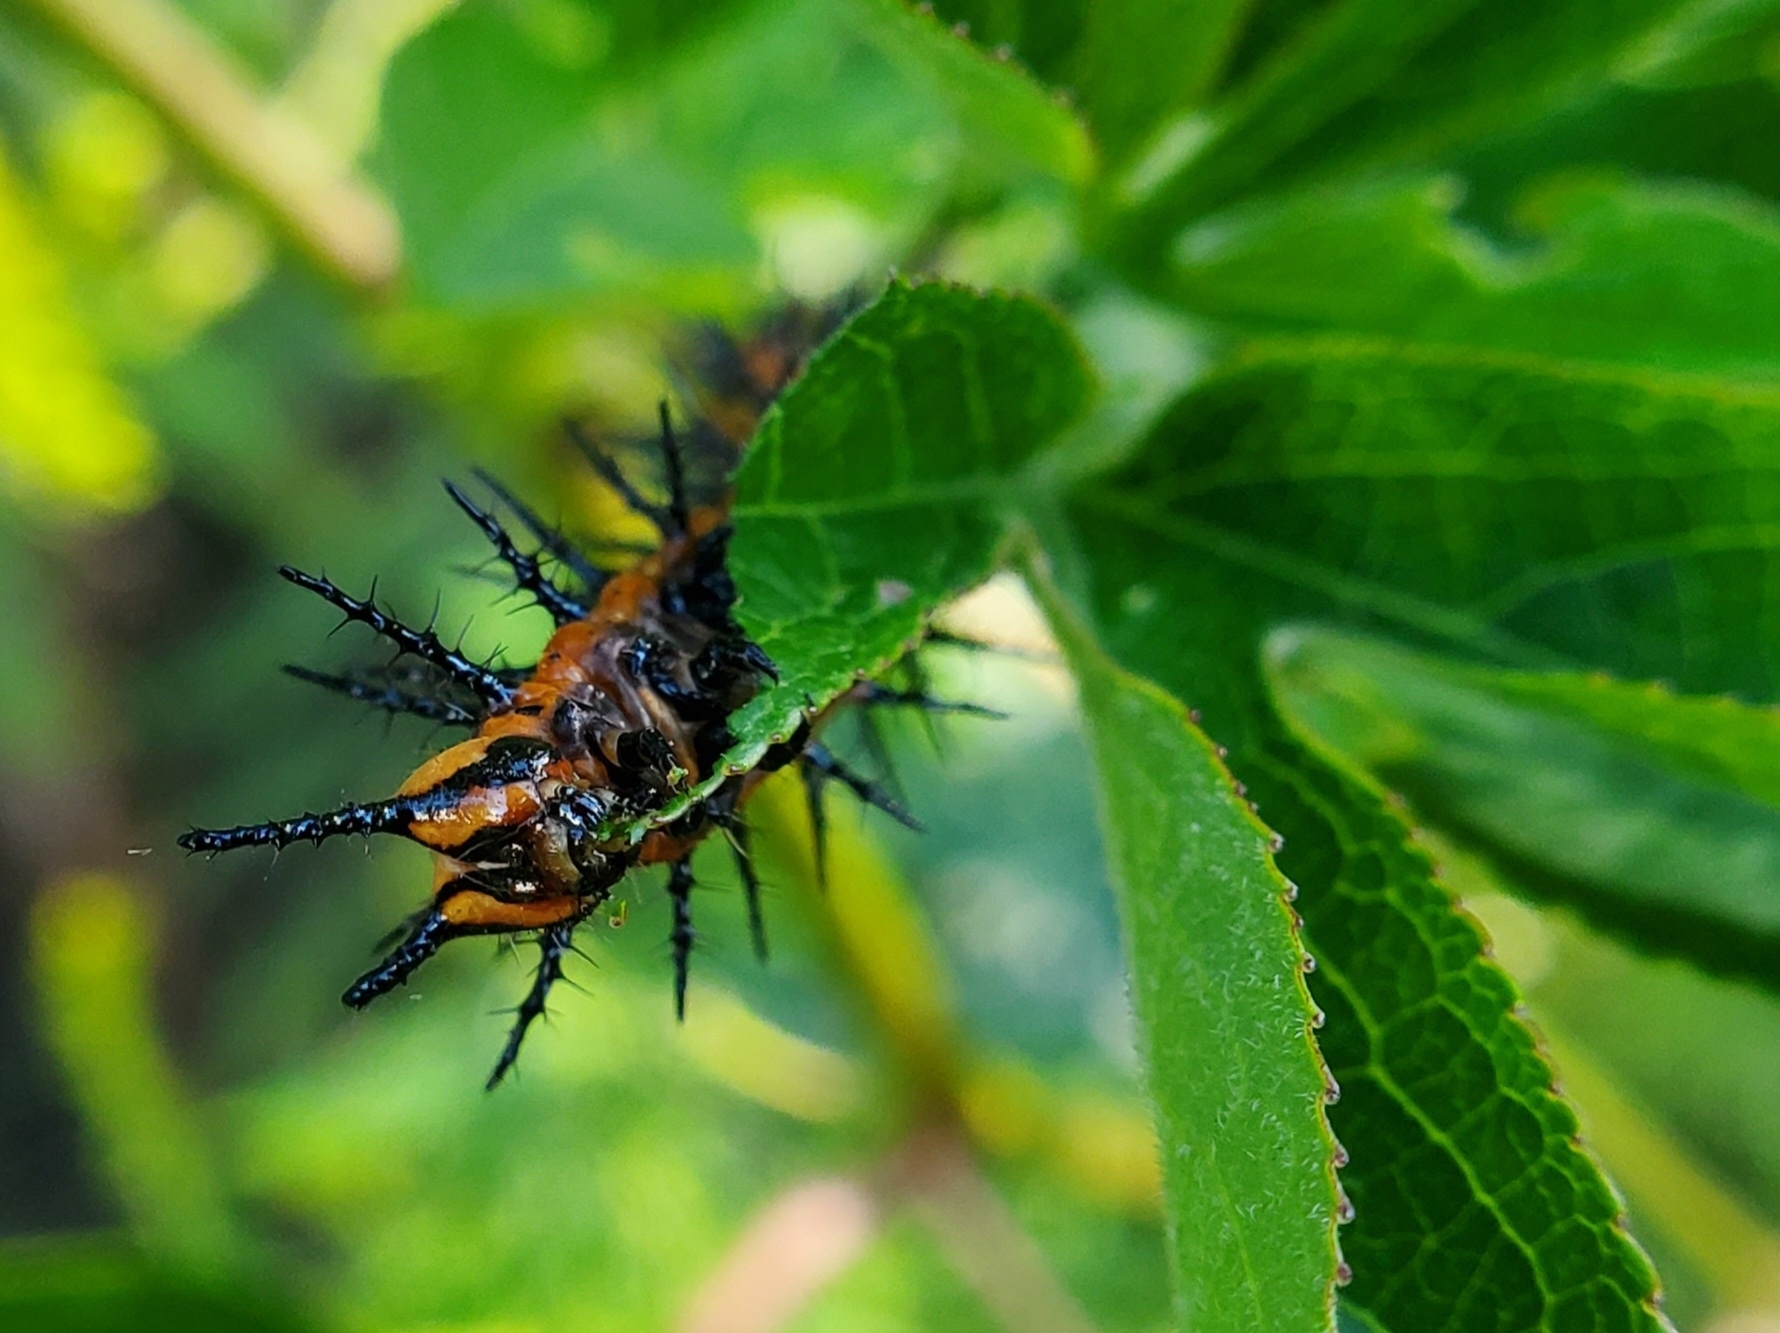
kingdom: Animalia
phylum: Arthropoda
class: Insecta
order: Lepidoptera
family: Nymphalidae
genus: Dione
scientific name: Dione vanillae
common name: Gulf fritillary
